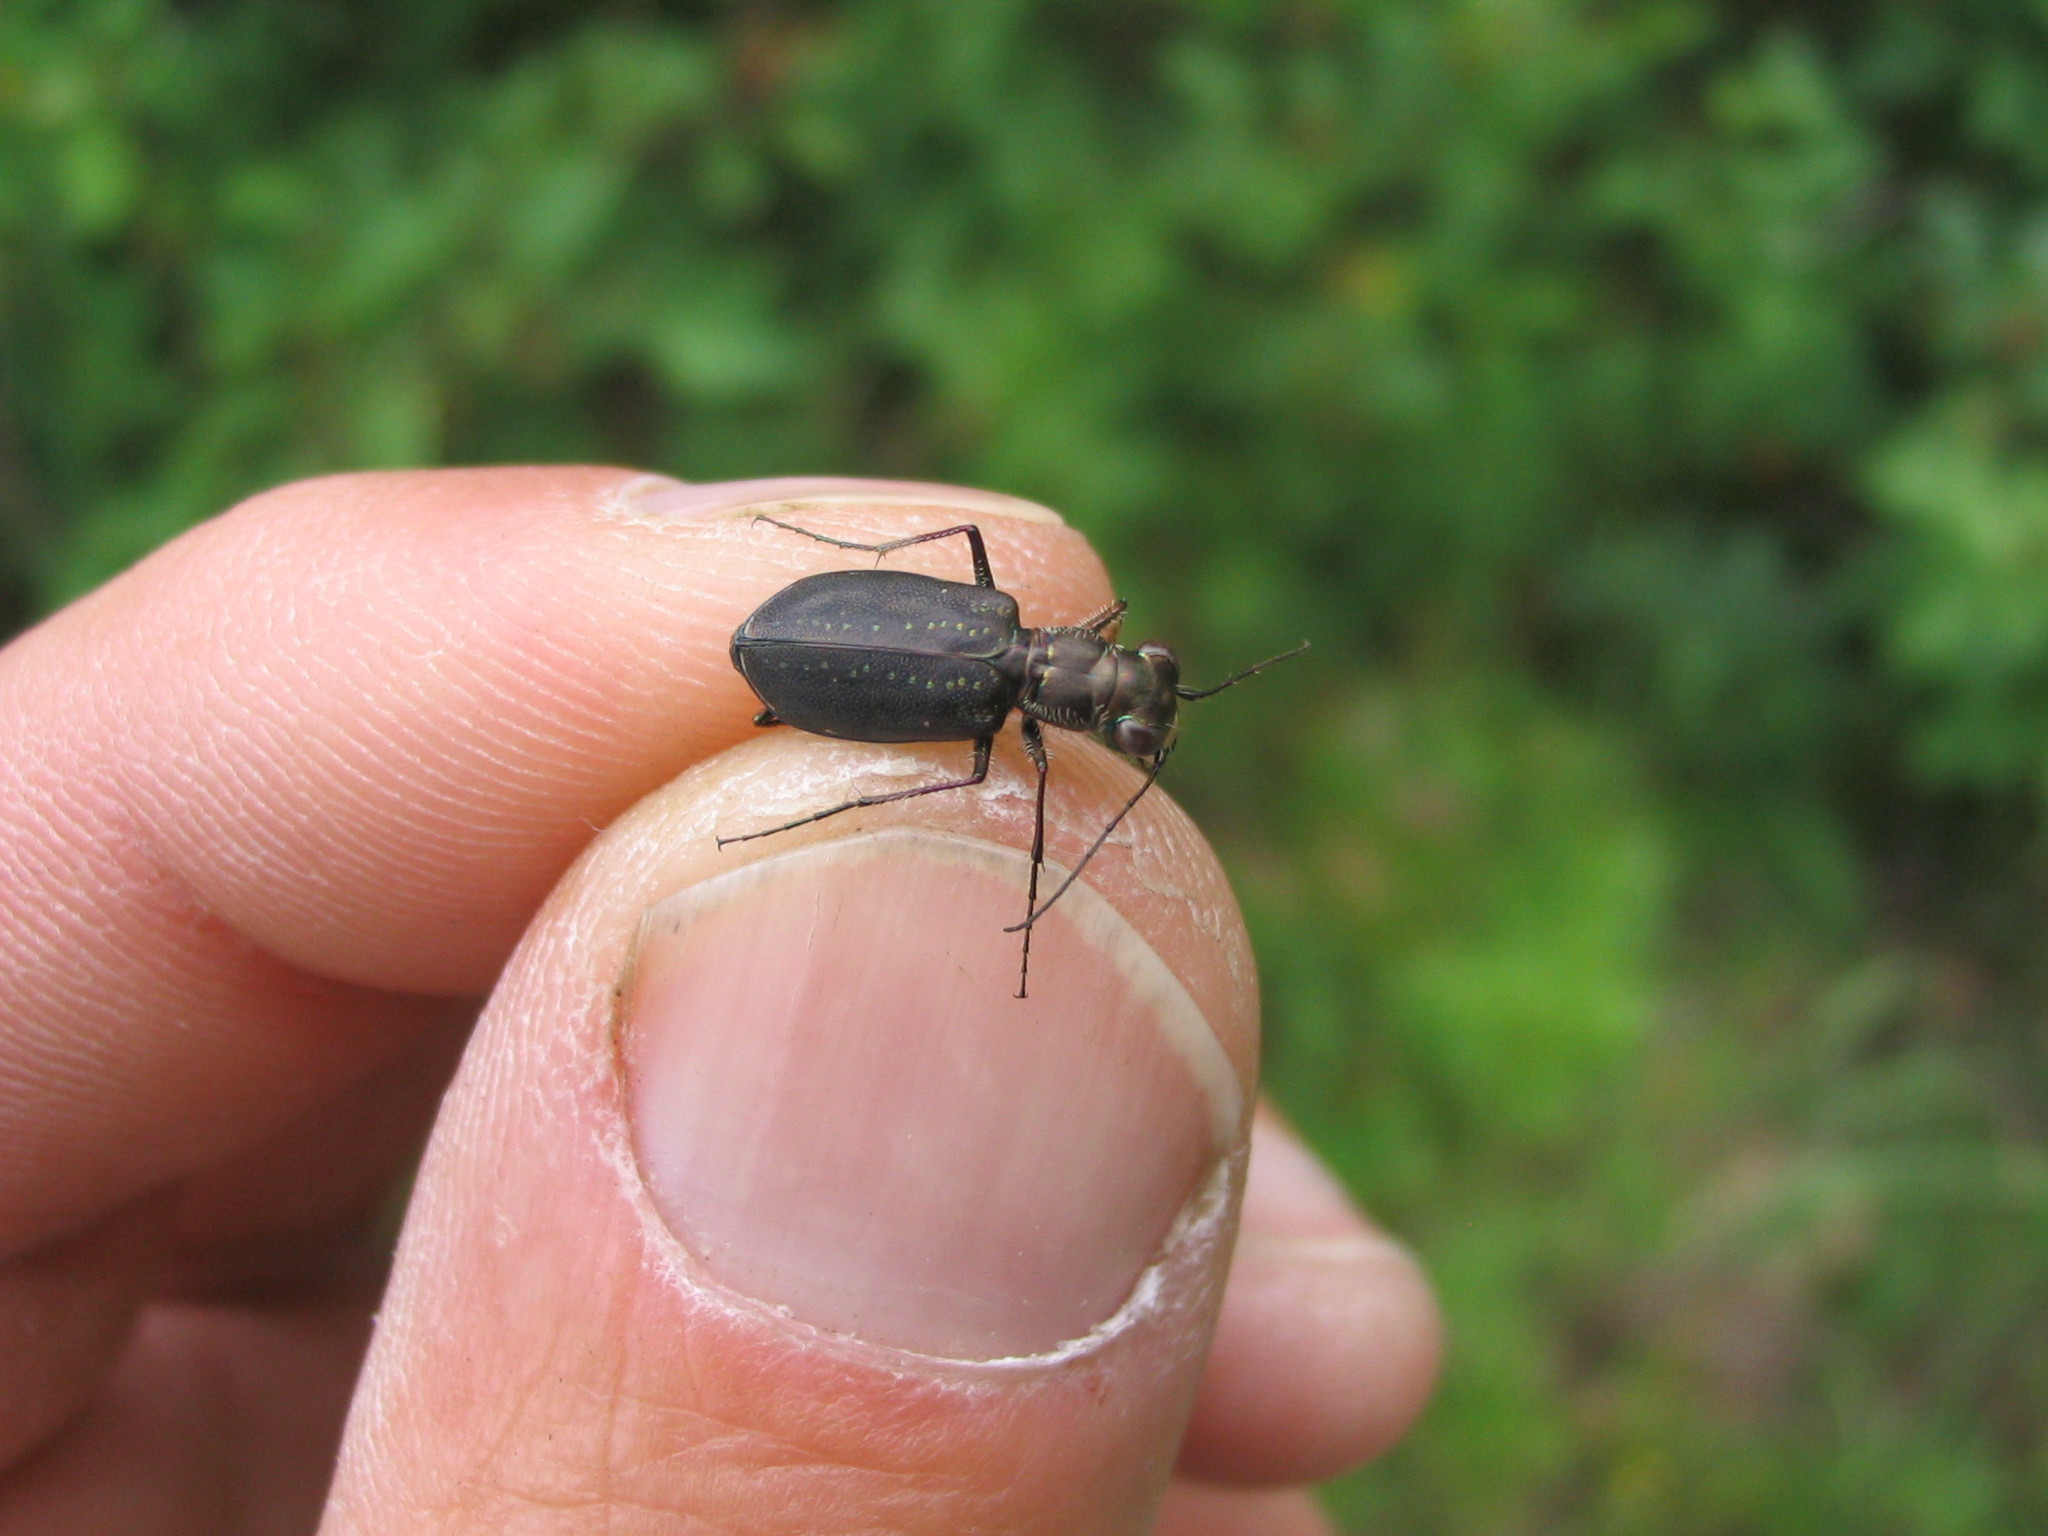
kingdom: Animalia
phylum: Arthropoda
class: Insecta
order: Coleoptera
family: Carabidae
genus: Cicindela
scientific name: Cicindela punctulata
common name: Punctured tiger beetle
